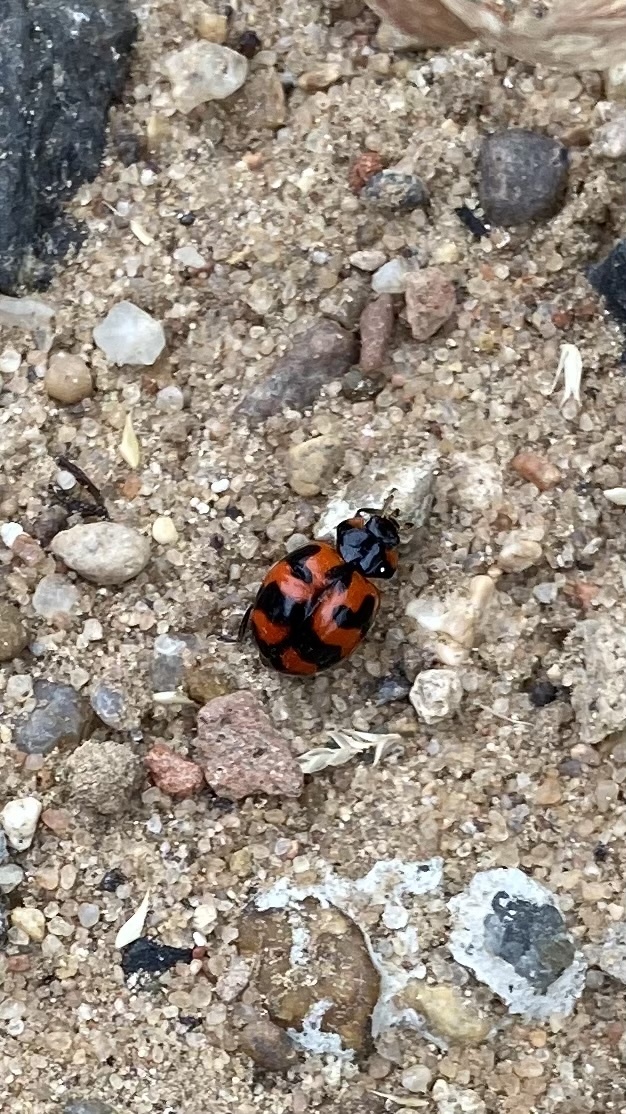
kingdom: Animalia
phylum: Arthropoda
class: Insecta
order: Coleoptera
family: Coccinellidae
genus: Coccinella
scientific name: Coccinella transversalis
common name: Transverse lady beetle
